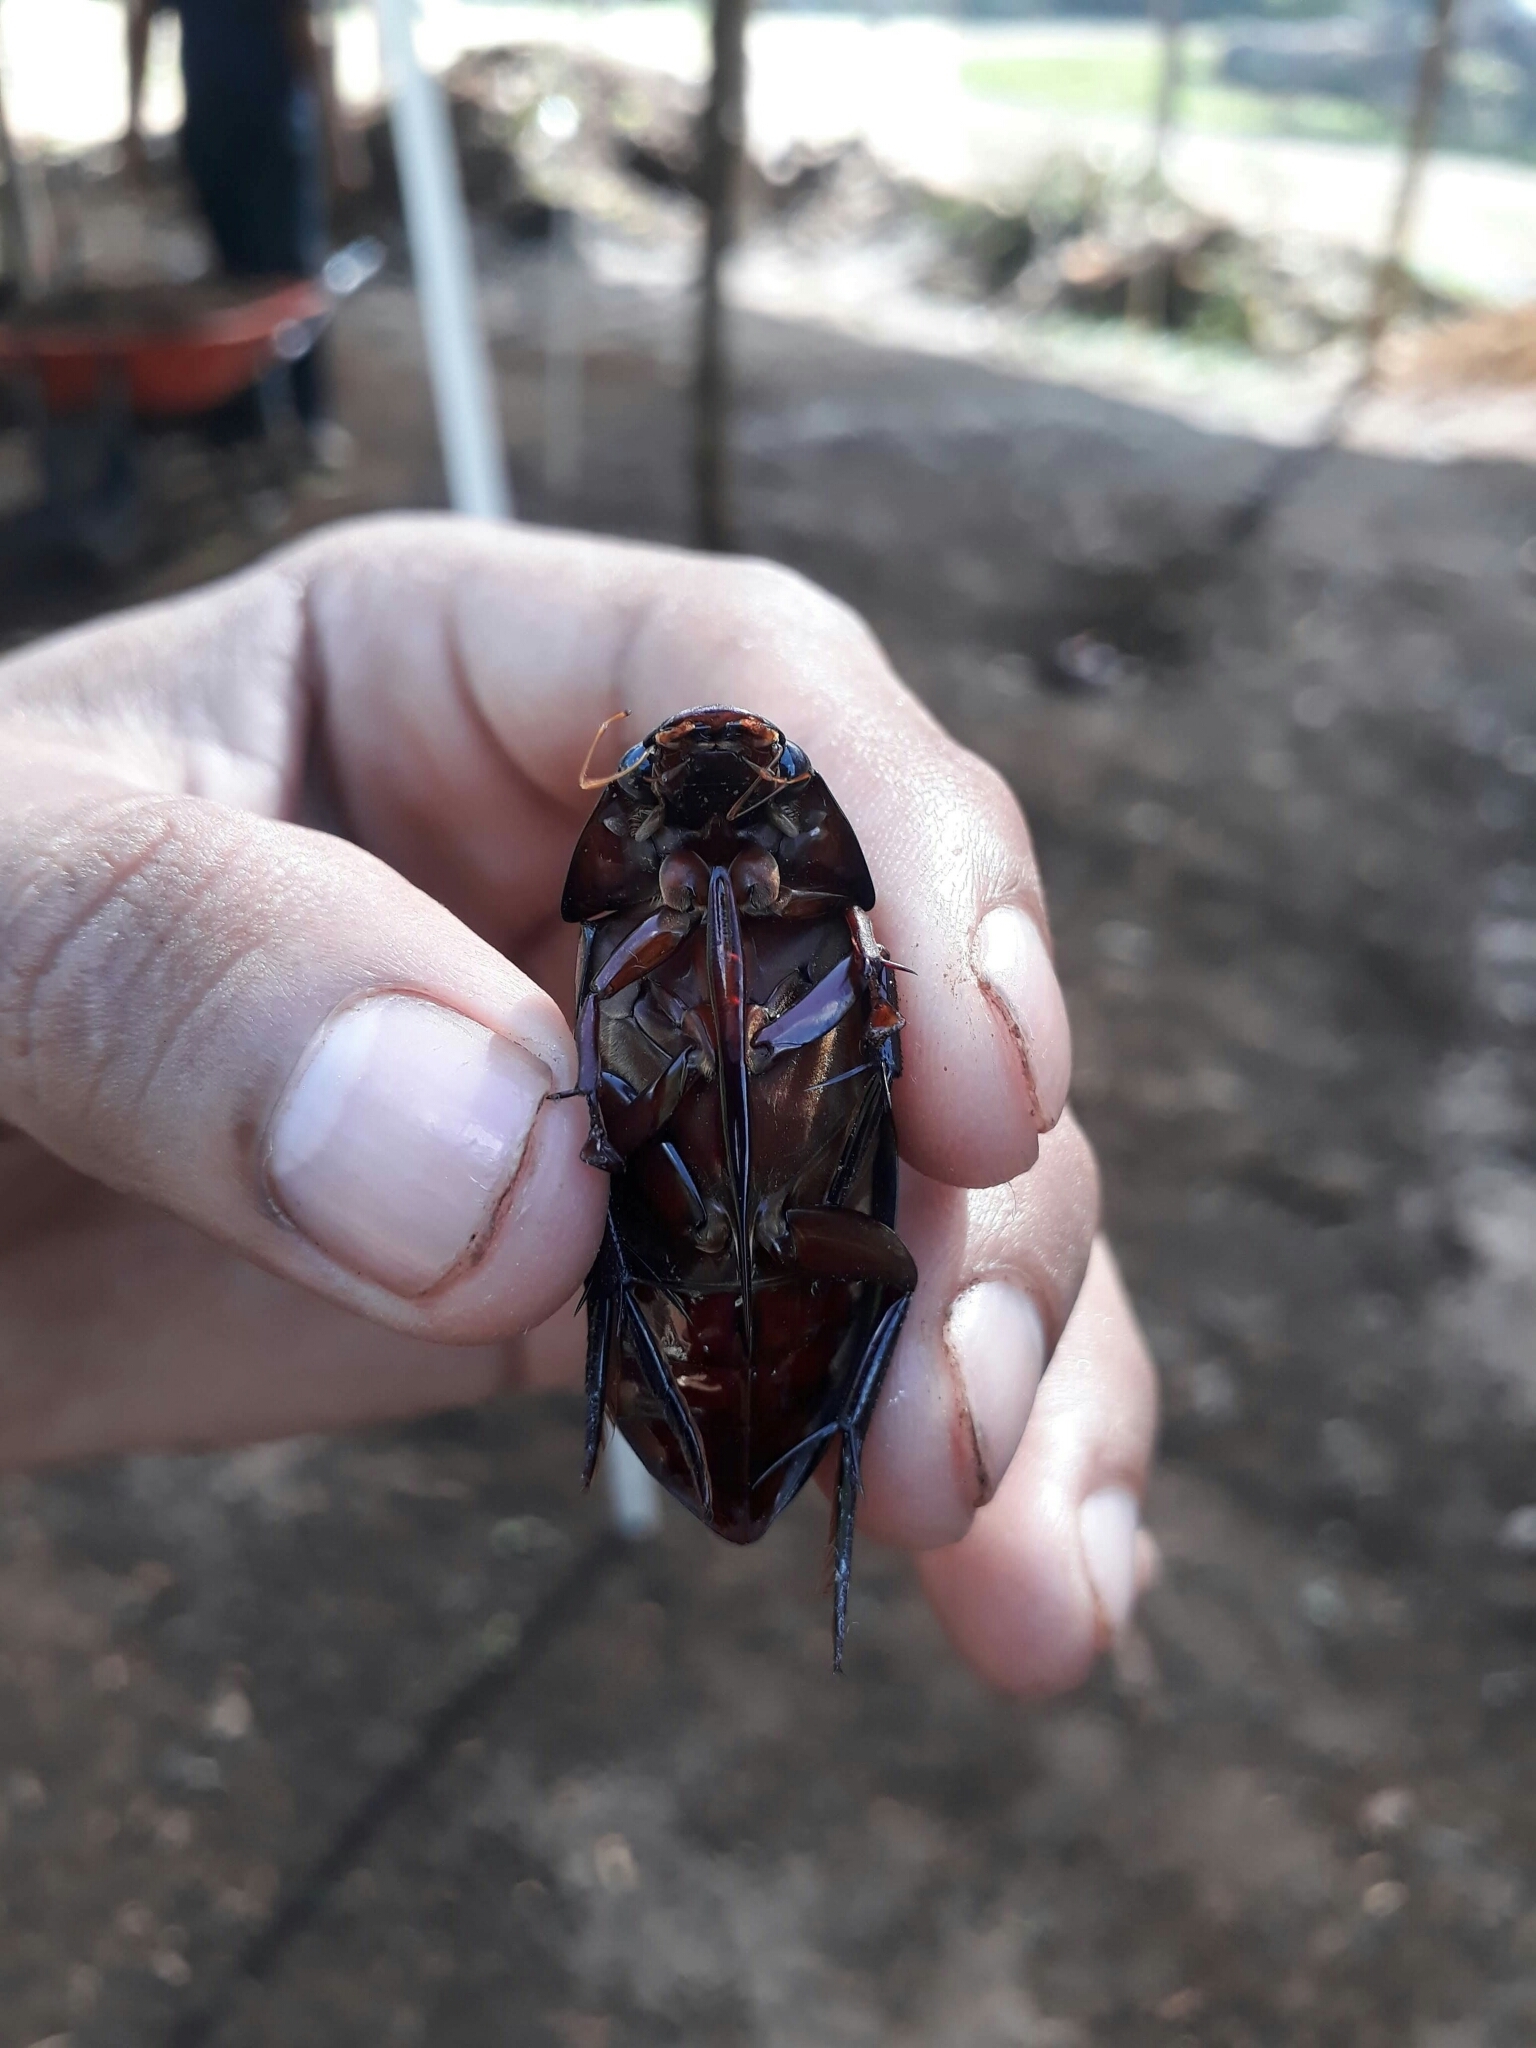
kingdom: Animalia
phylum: Arthropoda
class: Insecta
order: Coleoptera
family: Hydrophilidae
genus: Hydrophilus
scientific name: Hydrophilus insularis
